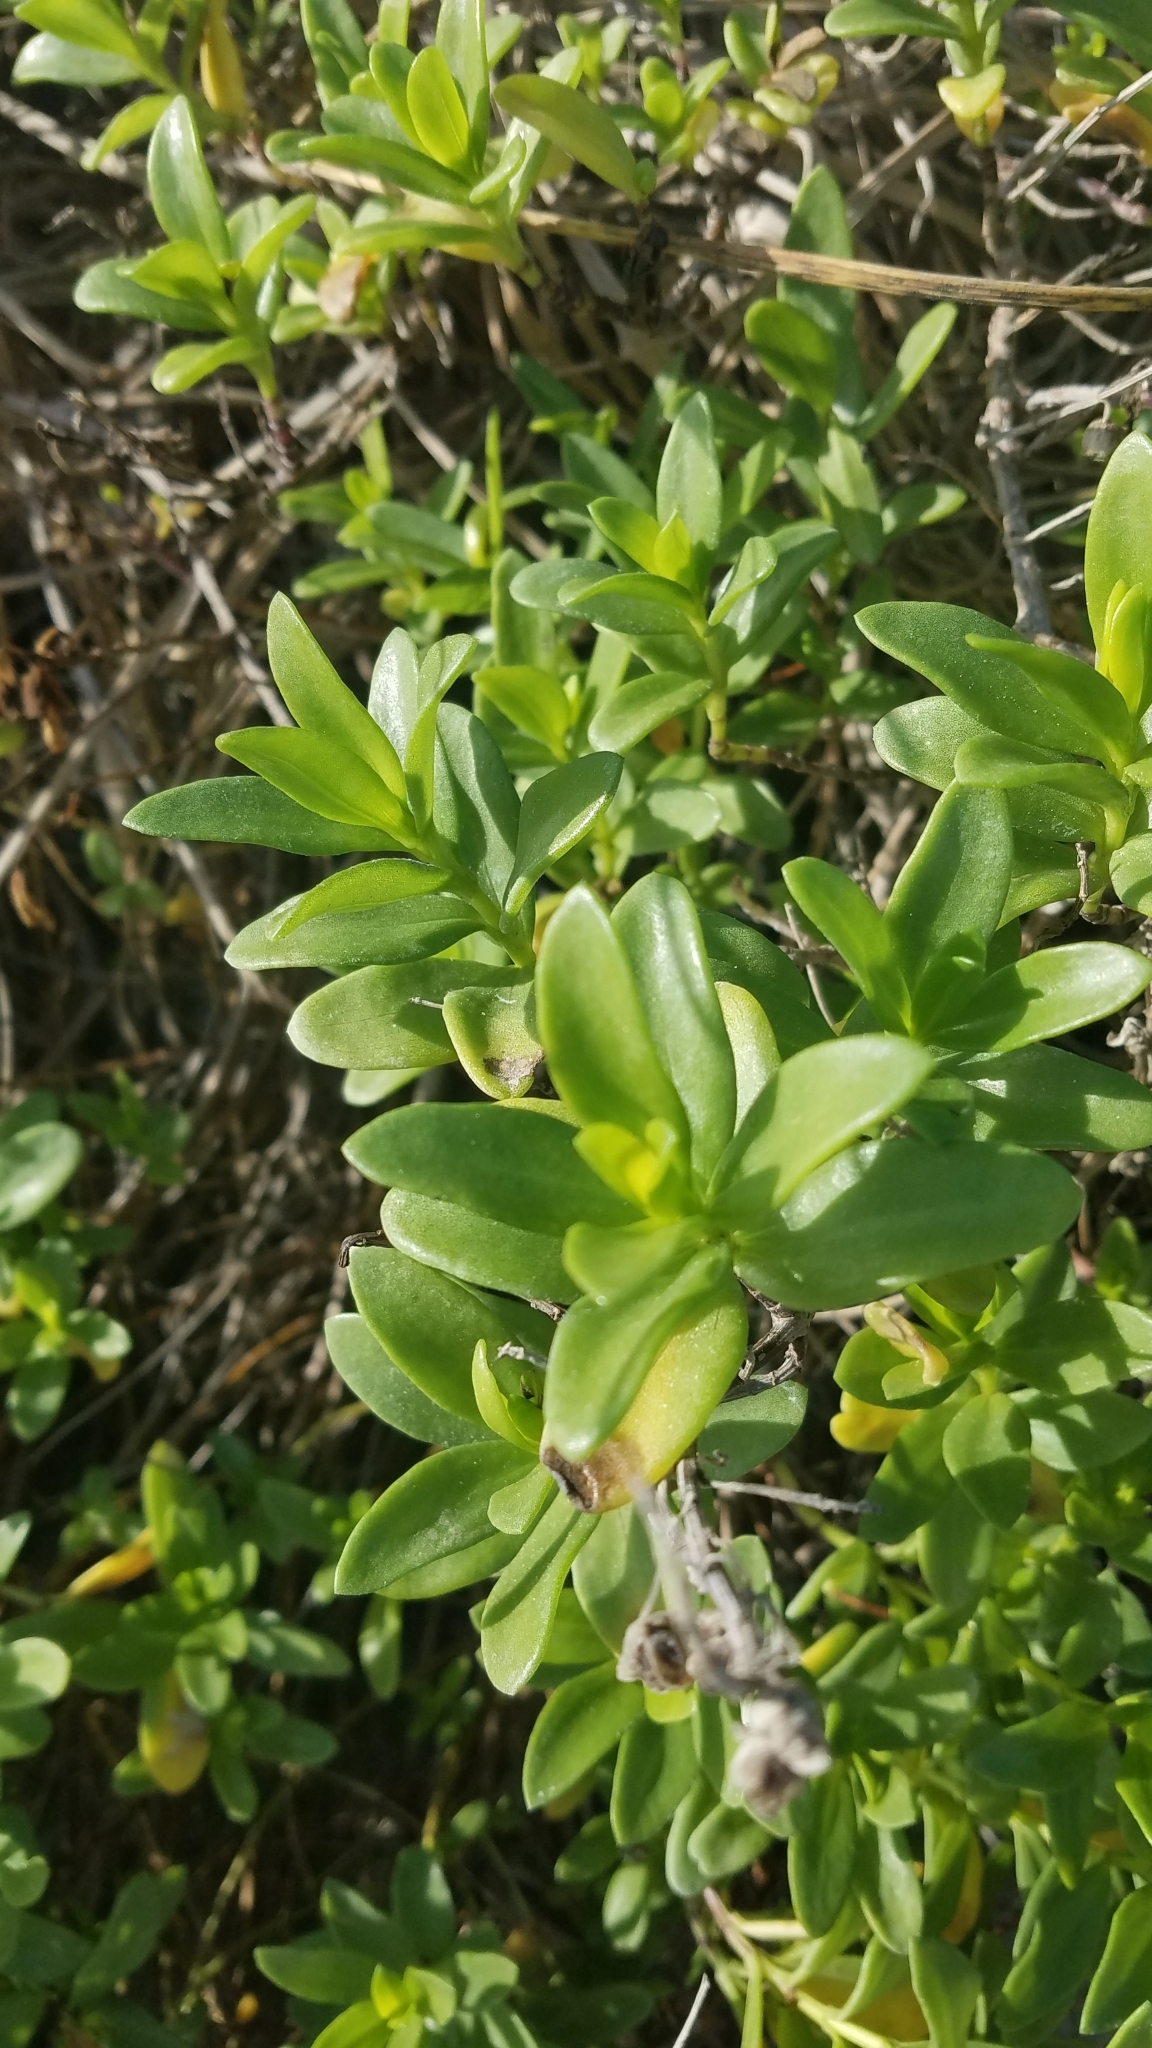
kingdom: Plantae
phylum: Tracheophyta
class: Magnoliopsida
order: Asterales
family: Asteraceae
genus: Iva
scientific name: Iva imbricata
